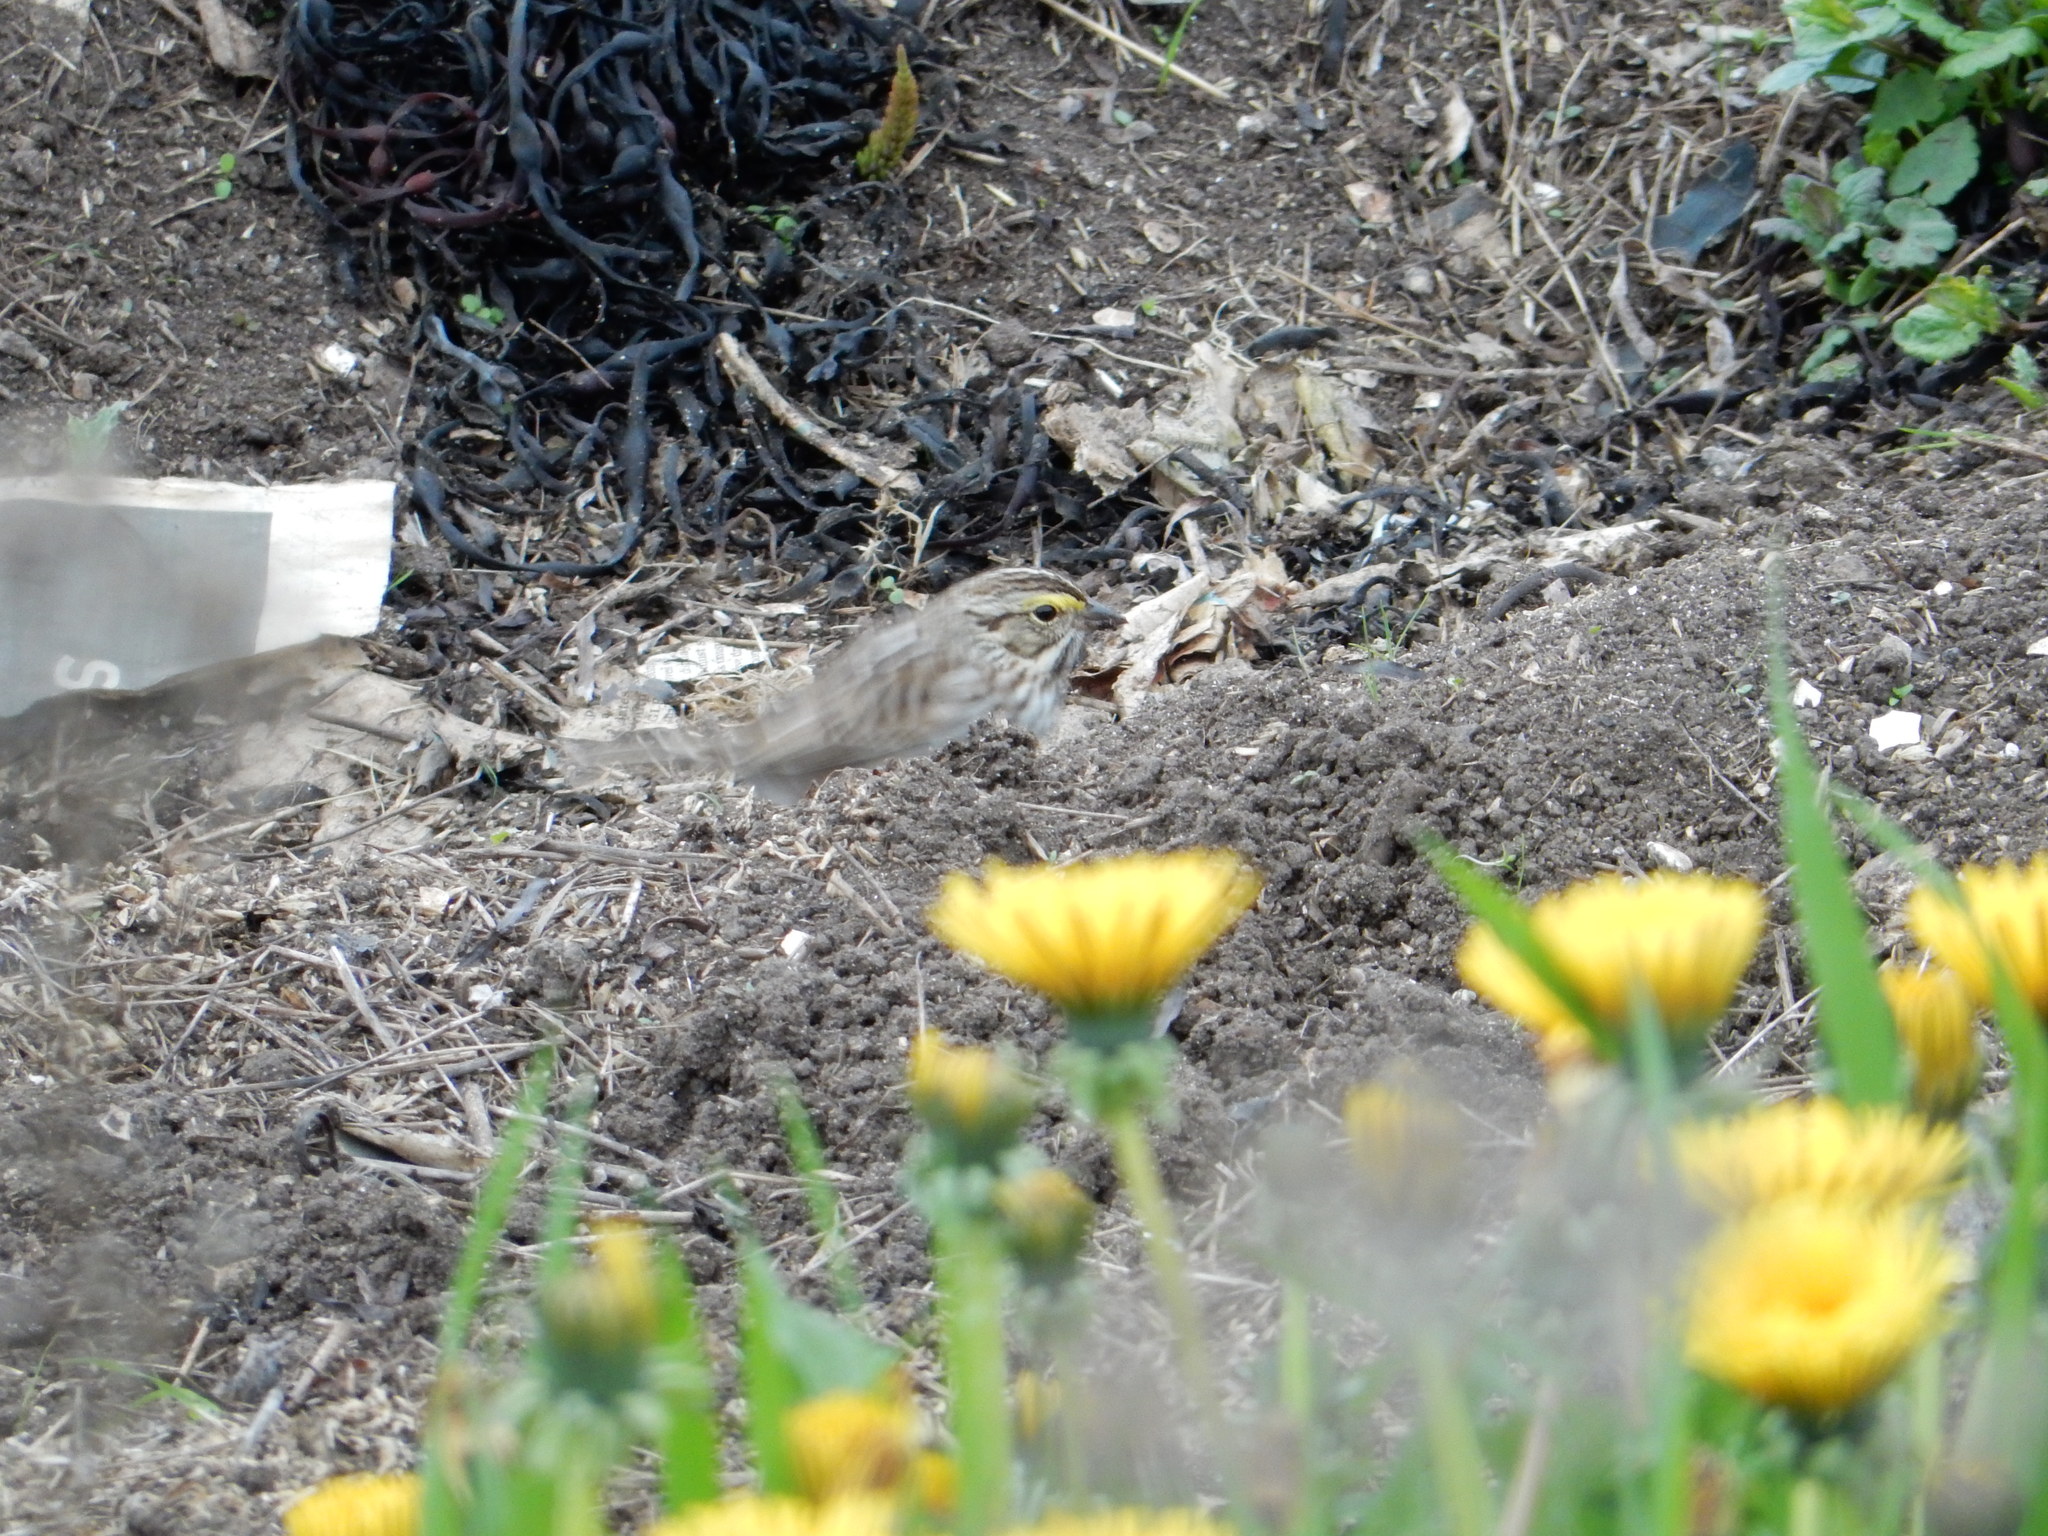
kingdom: Animalia
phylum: Chordata
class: Aves
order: Passeriformes
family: Passerellidae
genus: Passerculus
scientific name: Passerculus sandwichensis
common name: Savannah sparrow
